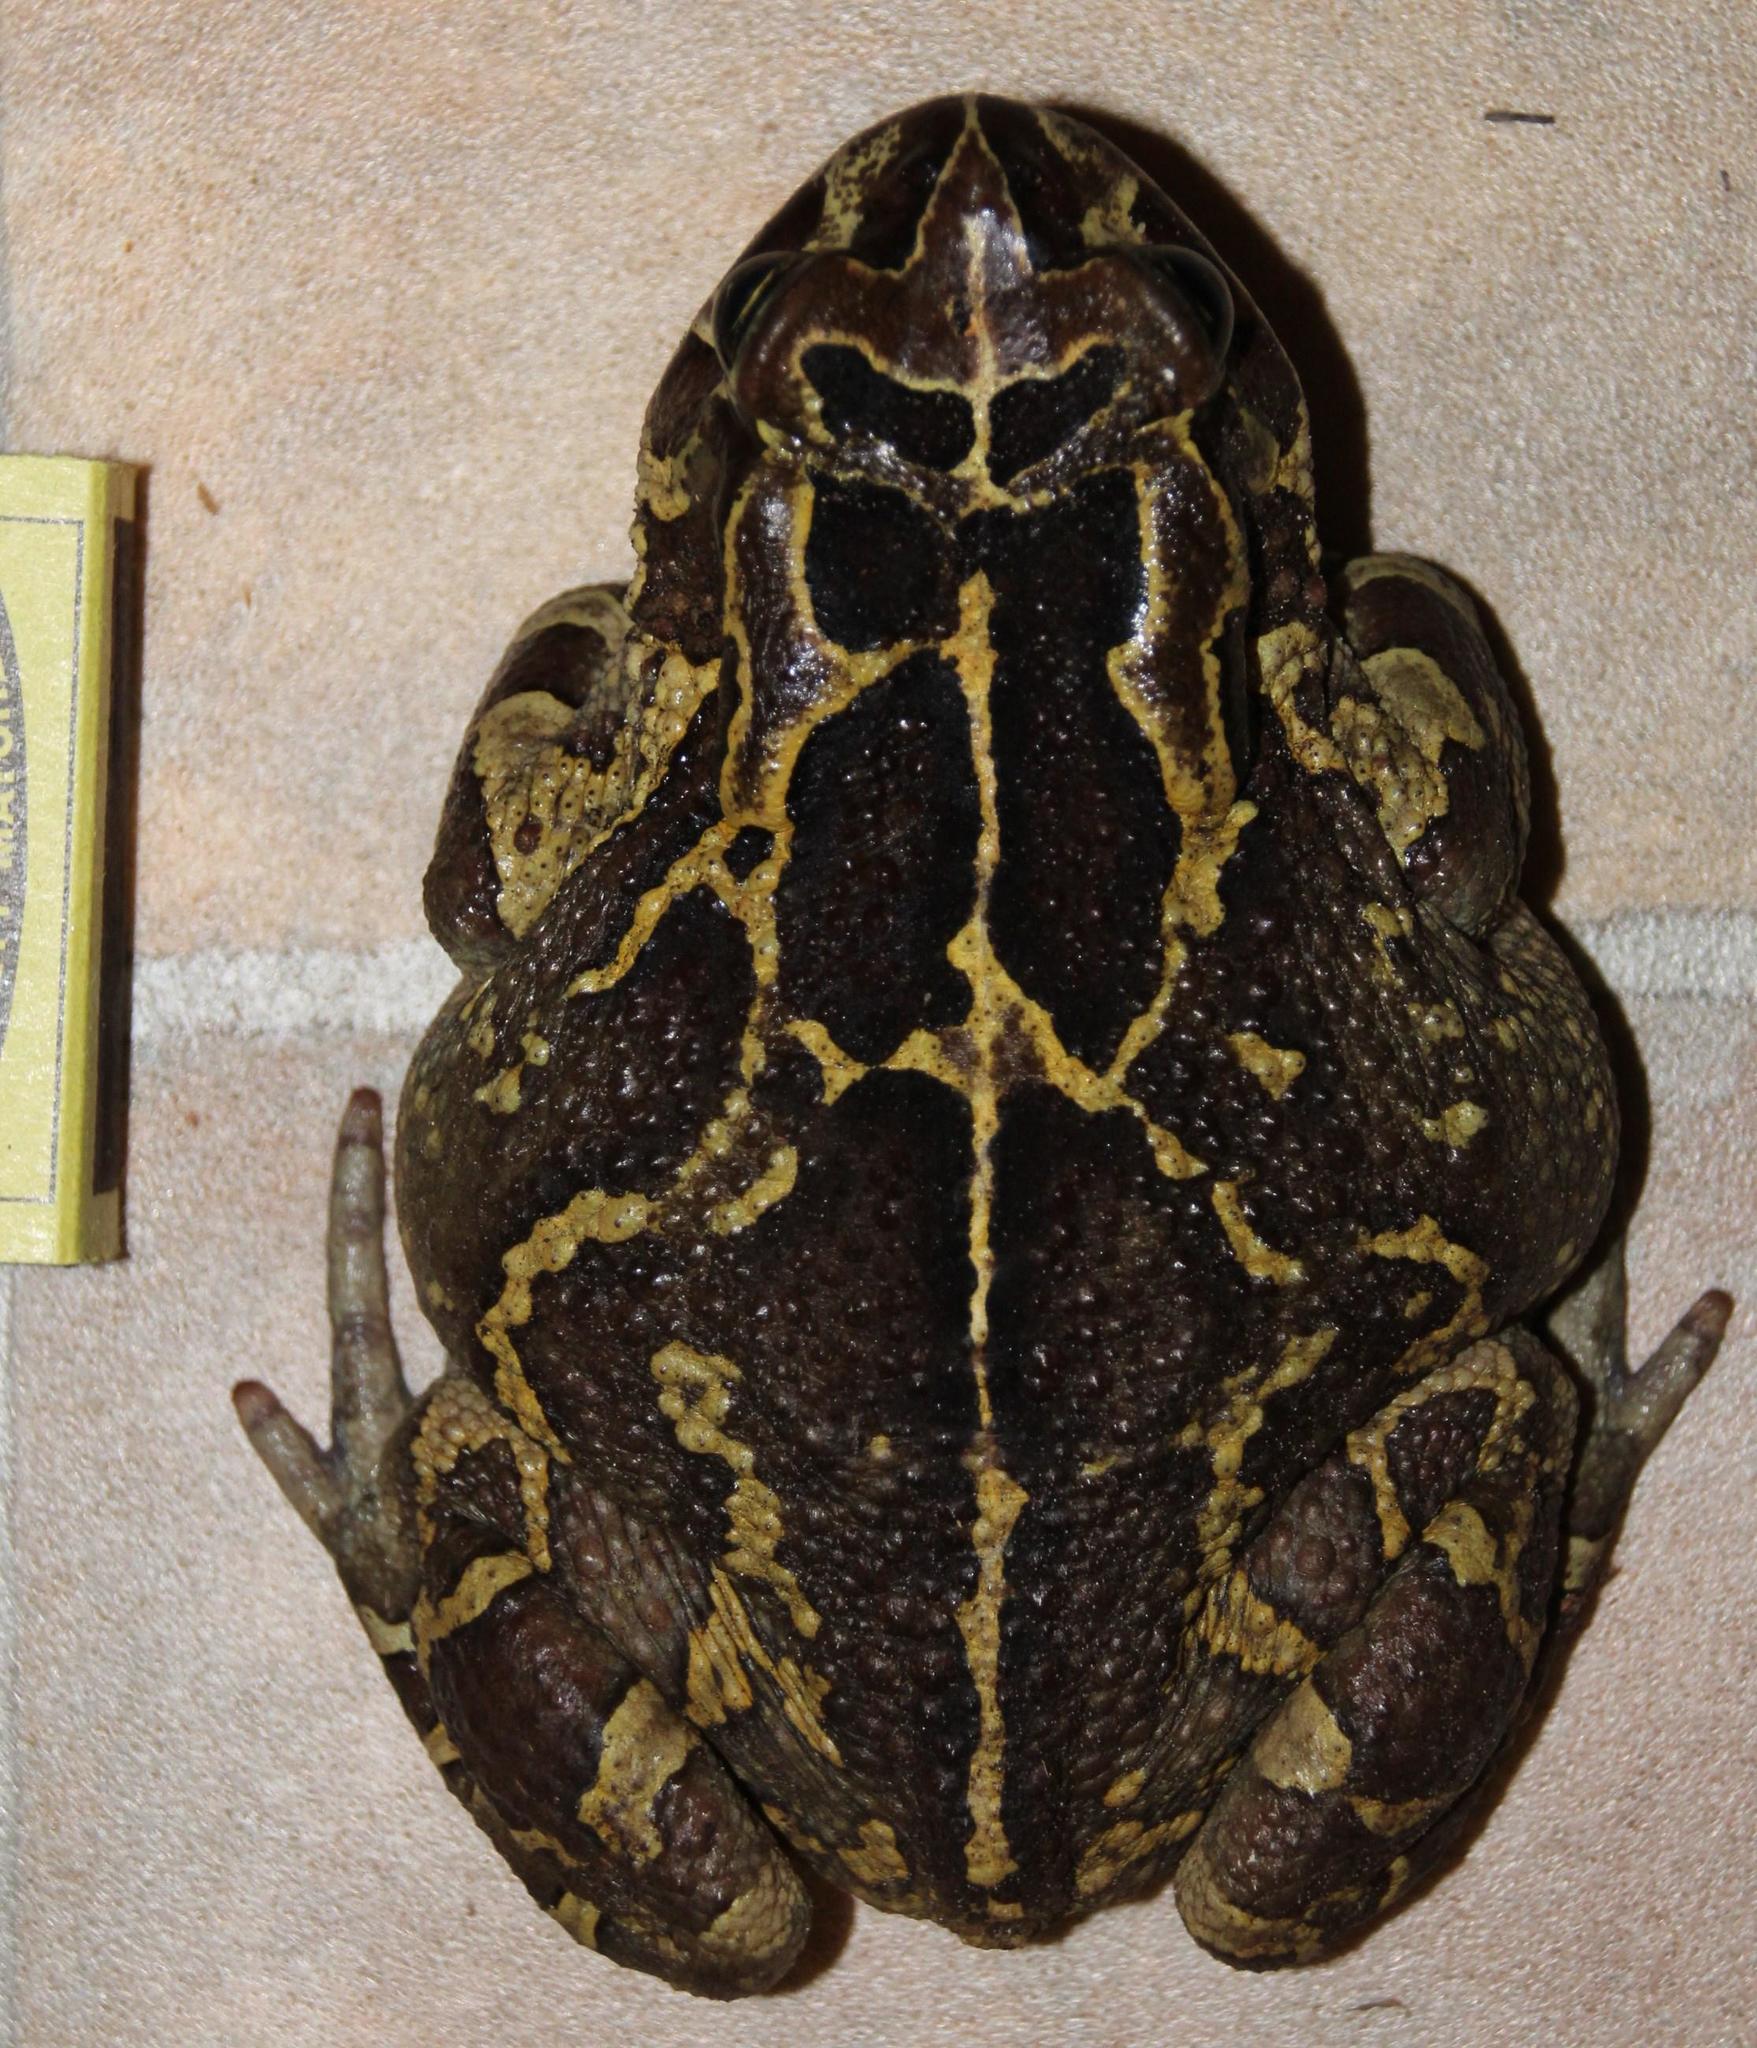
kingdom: Animalia
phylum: Chordata
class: Amphibia
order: Anura
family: Bufonidae
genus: Sclerophrys
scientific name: Sclerophrys pantherina
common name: Panther toad
